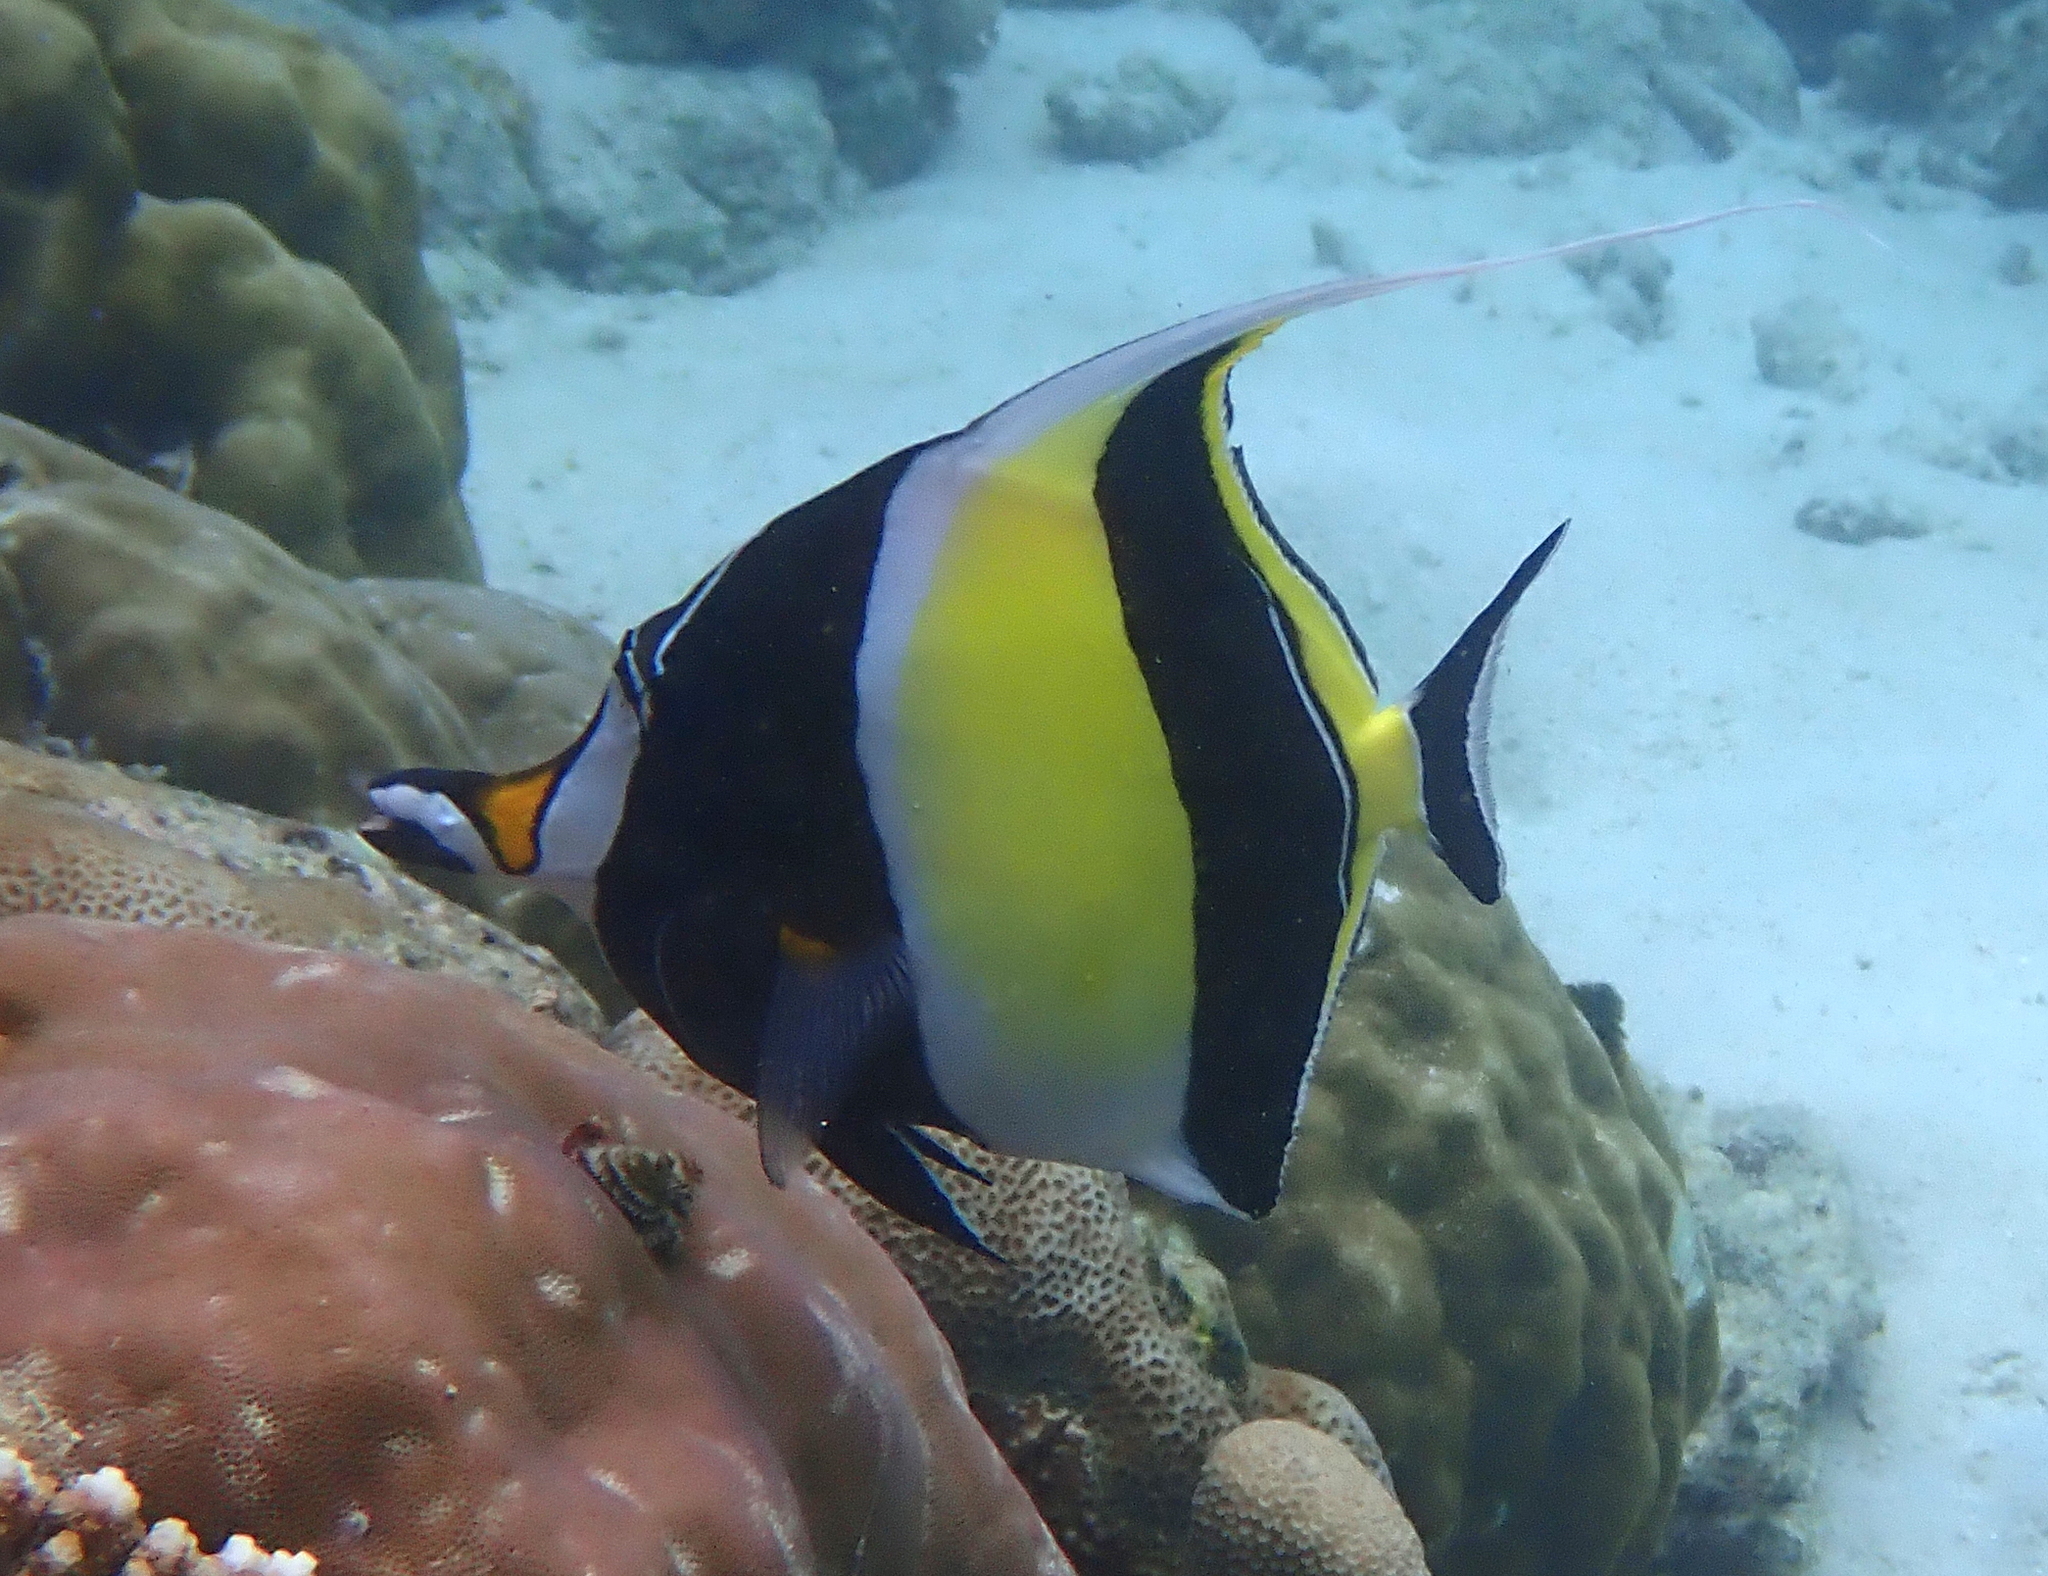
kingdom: Animalia
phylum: Chordata
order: Perciformes
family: Zanclidae
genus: Zanclus
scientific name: Zanclus cornutus
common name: Moorish idol
